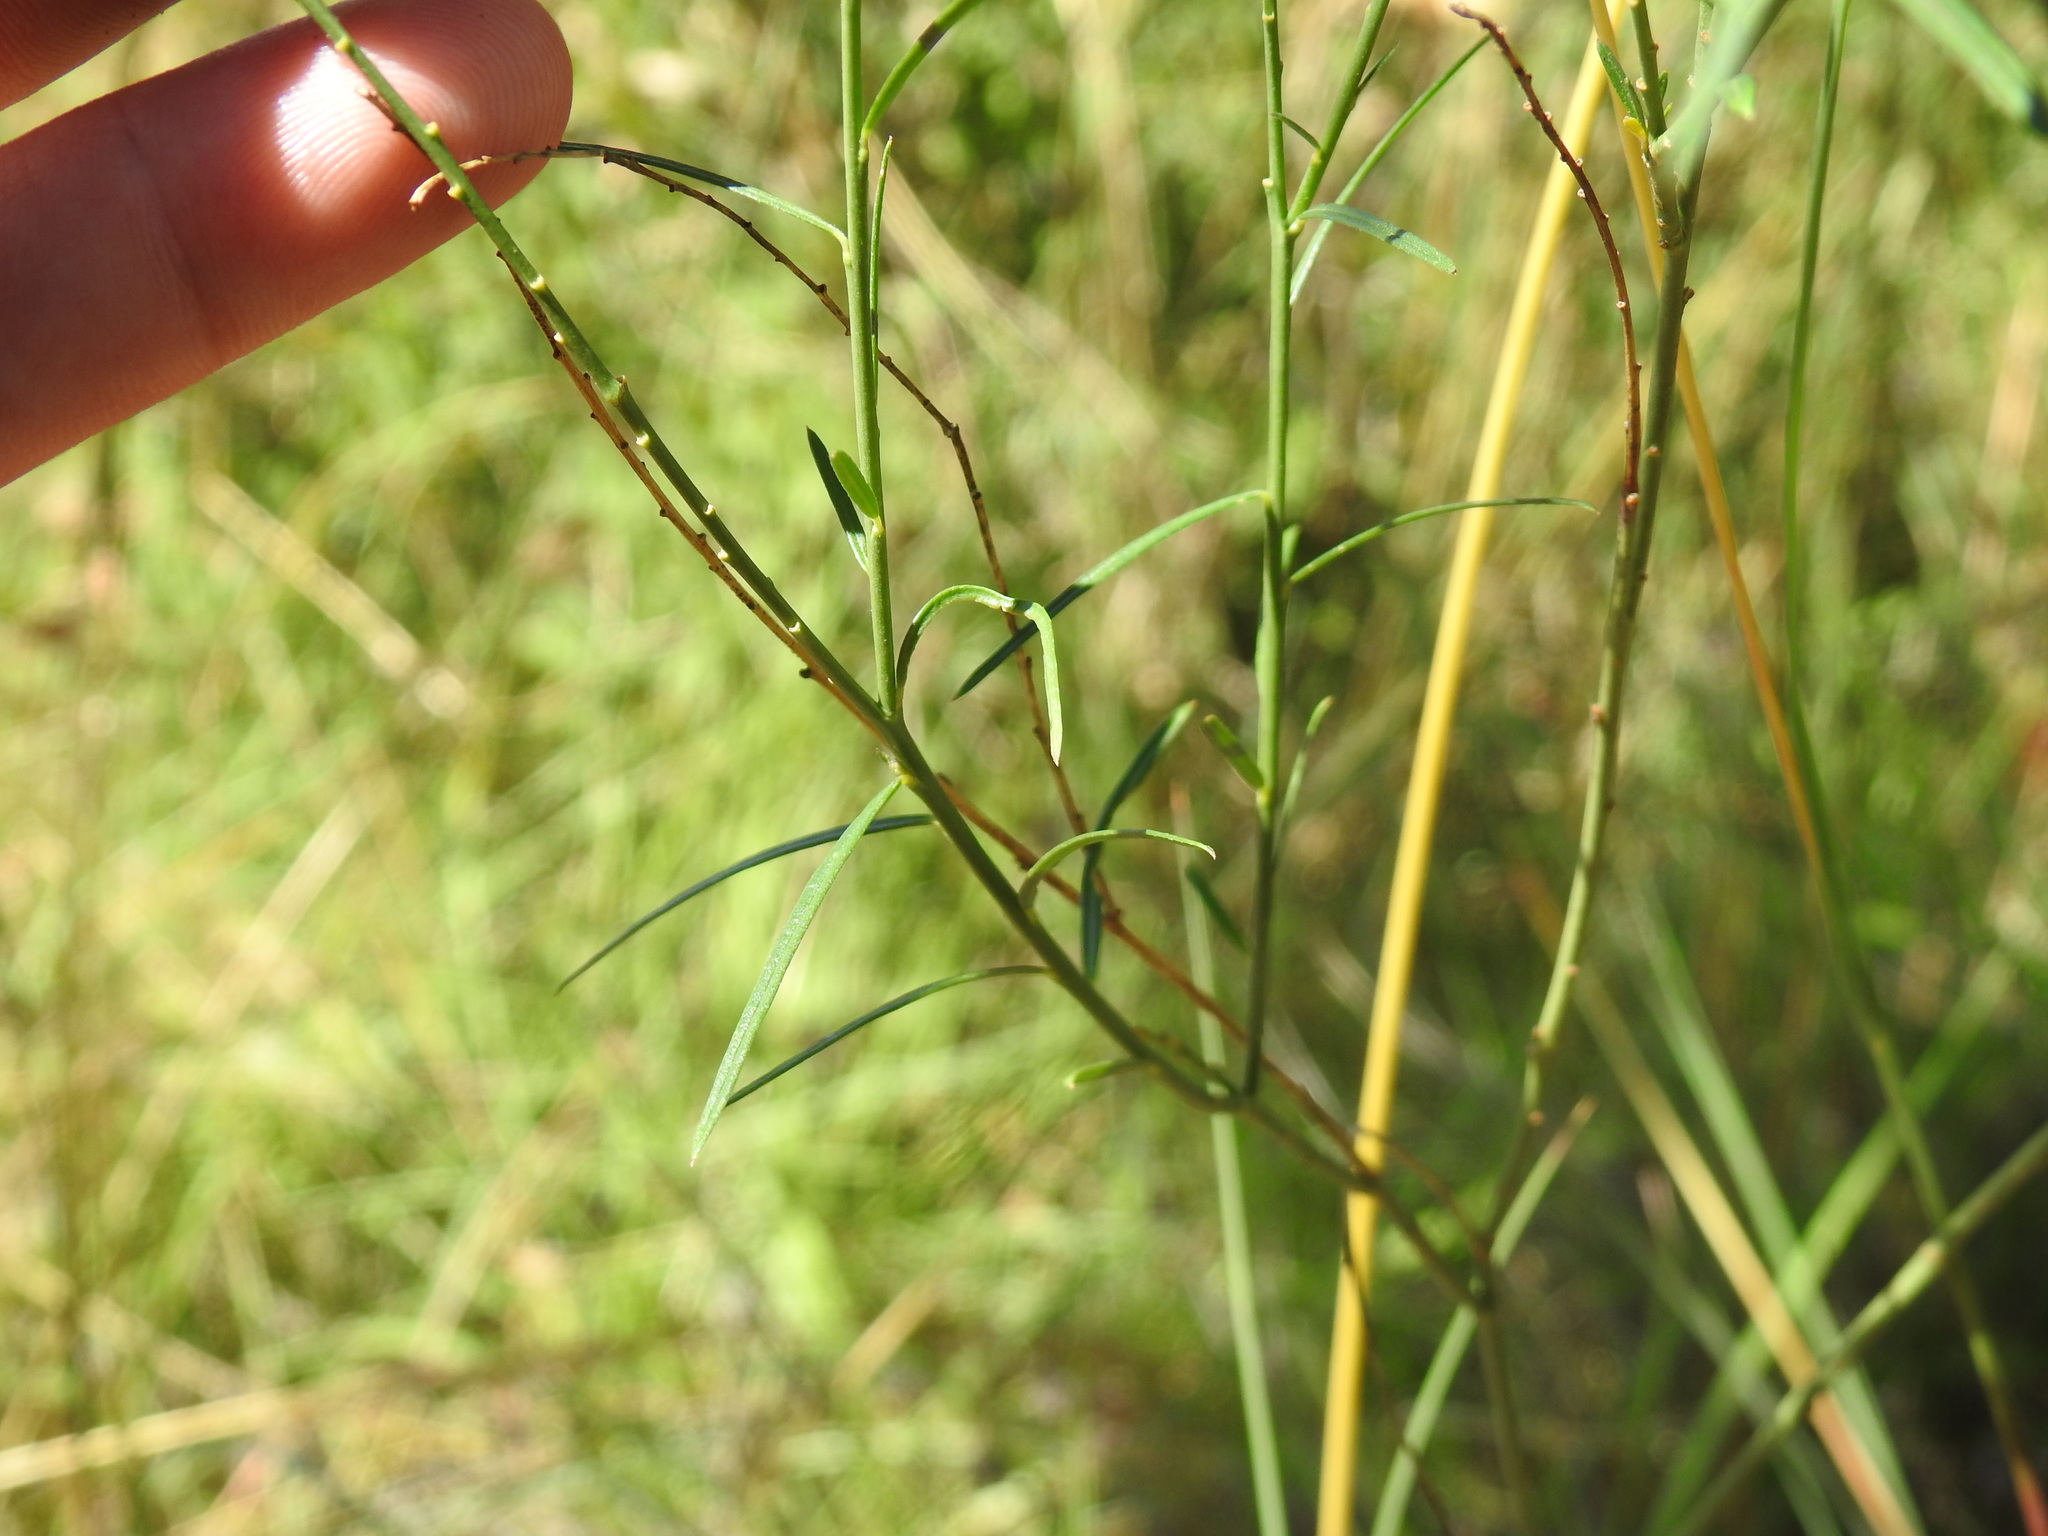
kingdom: Plantae
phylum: Tracheophyta
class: Magnoliopsida
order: Fabales
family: Polygalaceae
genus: Polygala
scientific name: Polygala hottentotta
